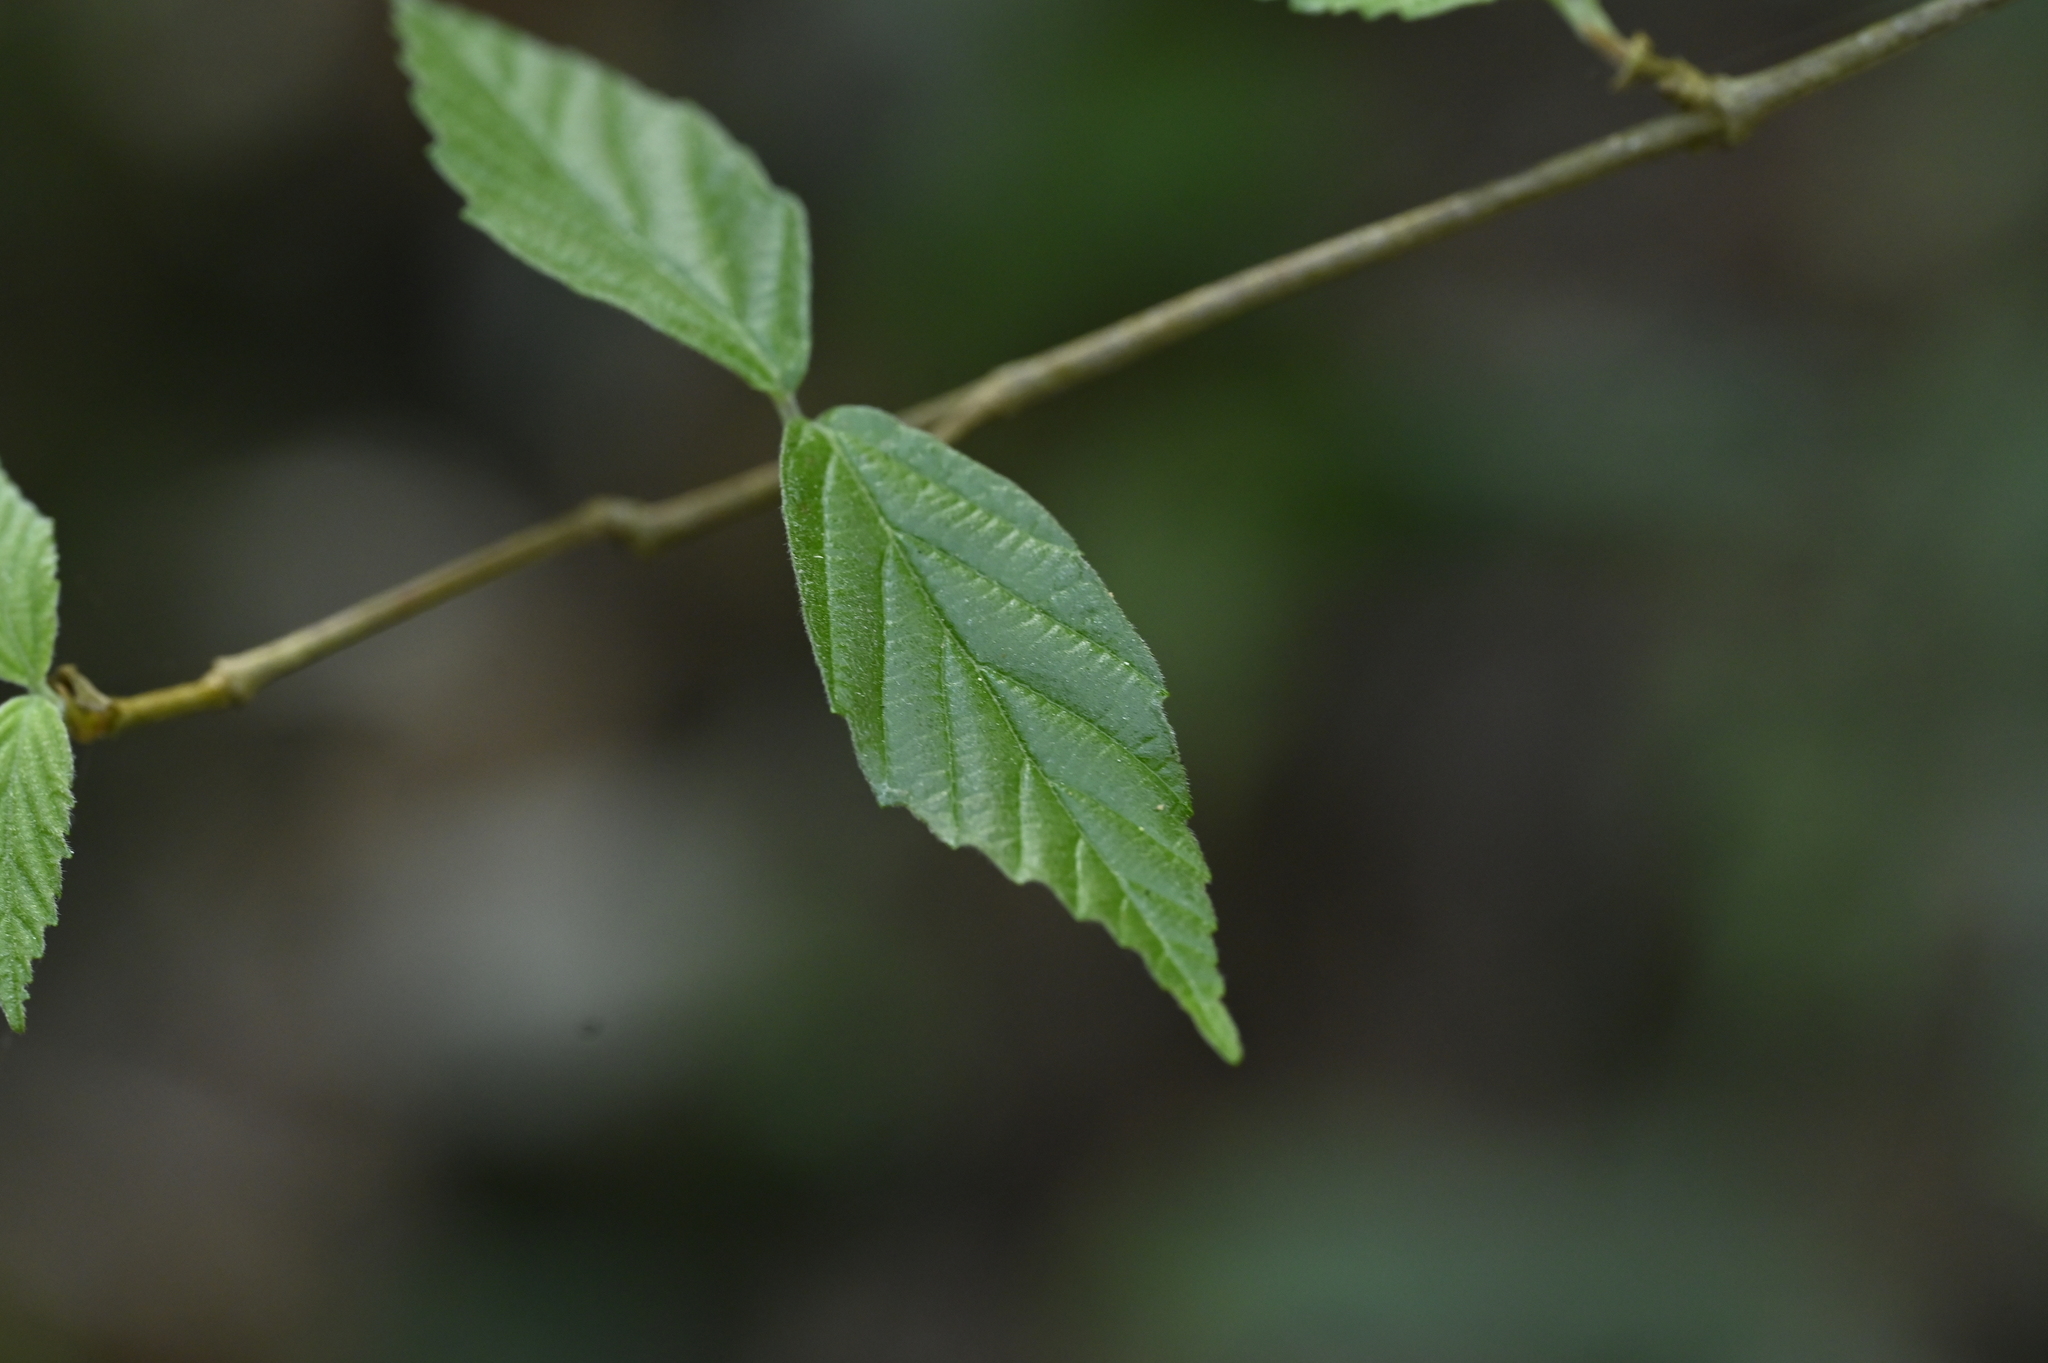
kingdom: Plantae
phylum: Tracheophyta
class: Magnoliopsida
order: Dipsacales
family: Viburnaceae
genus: Viburnum
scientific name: Viburnum luzonicum
